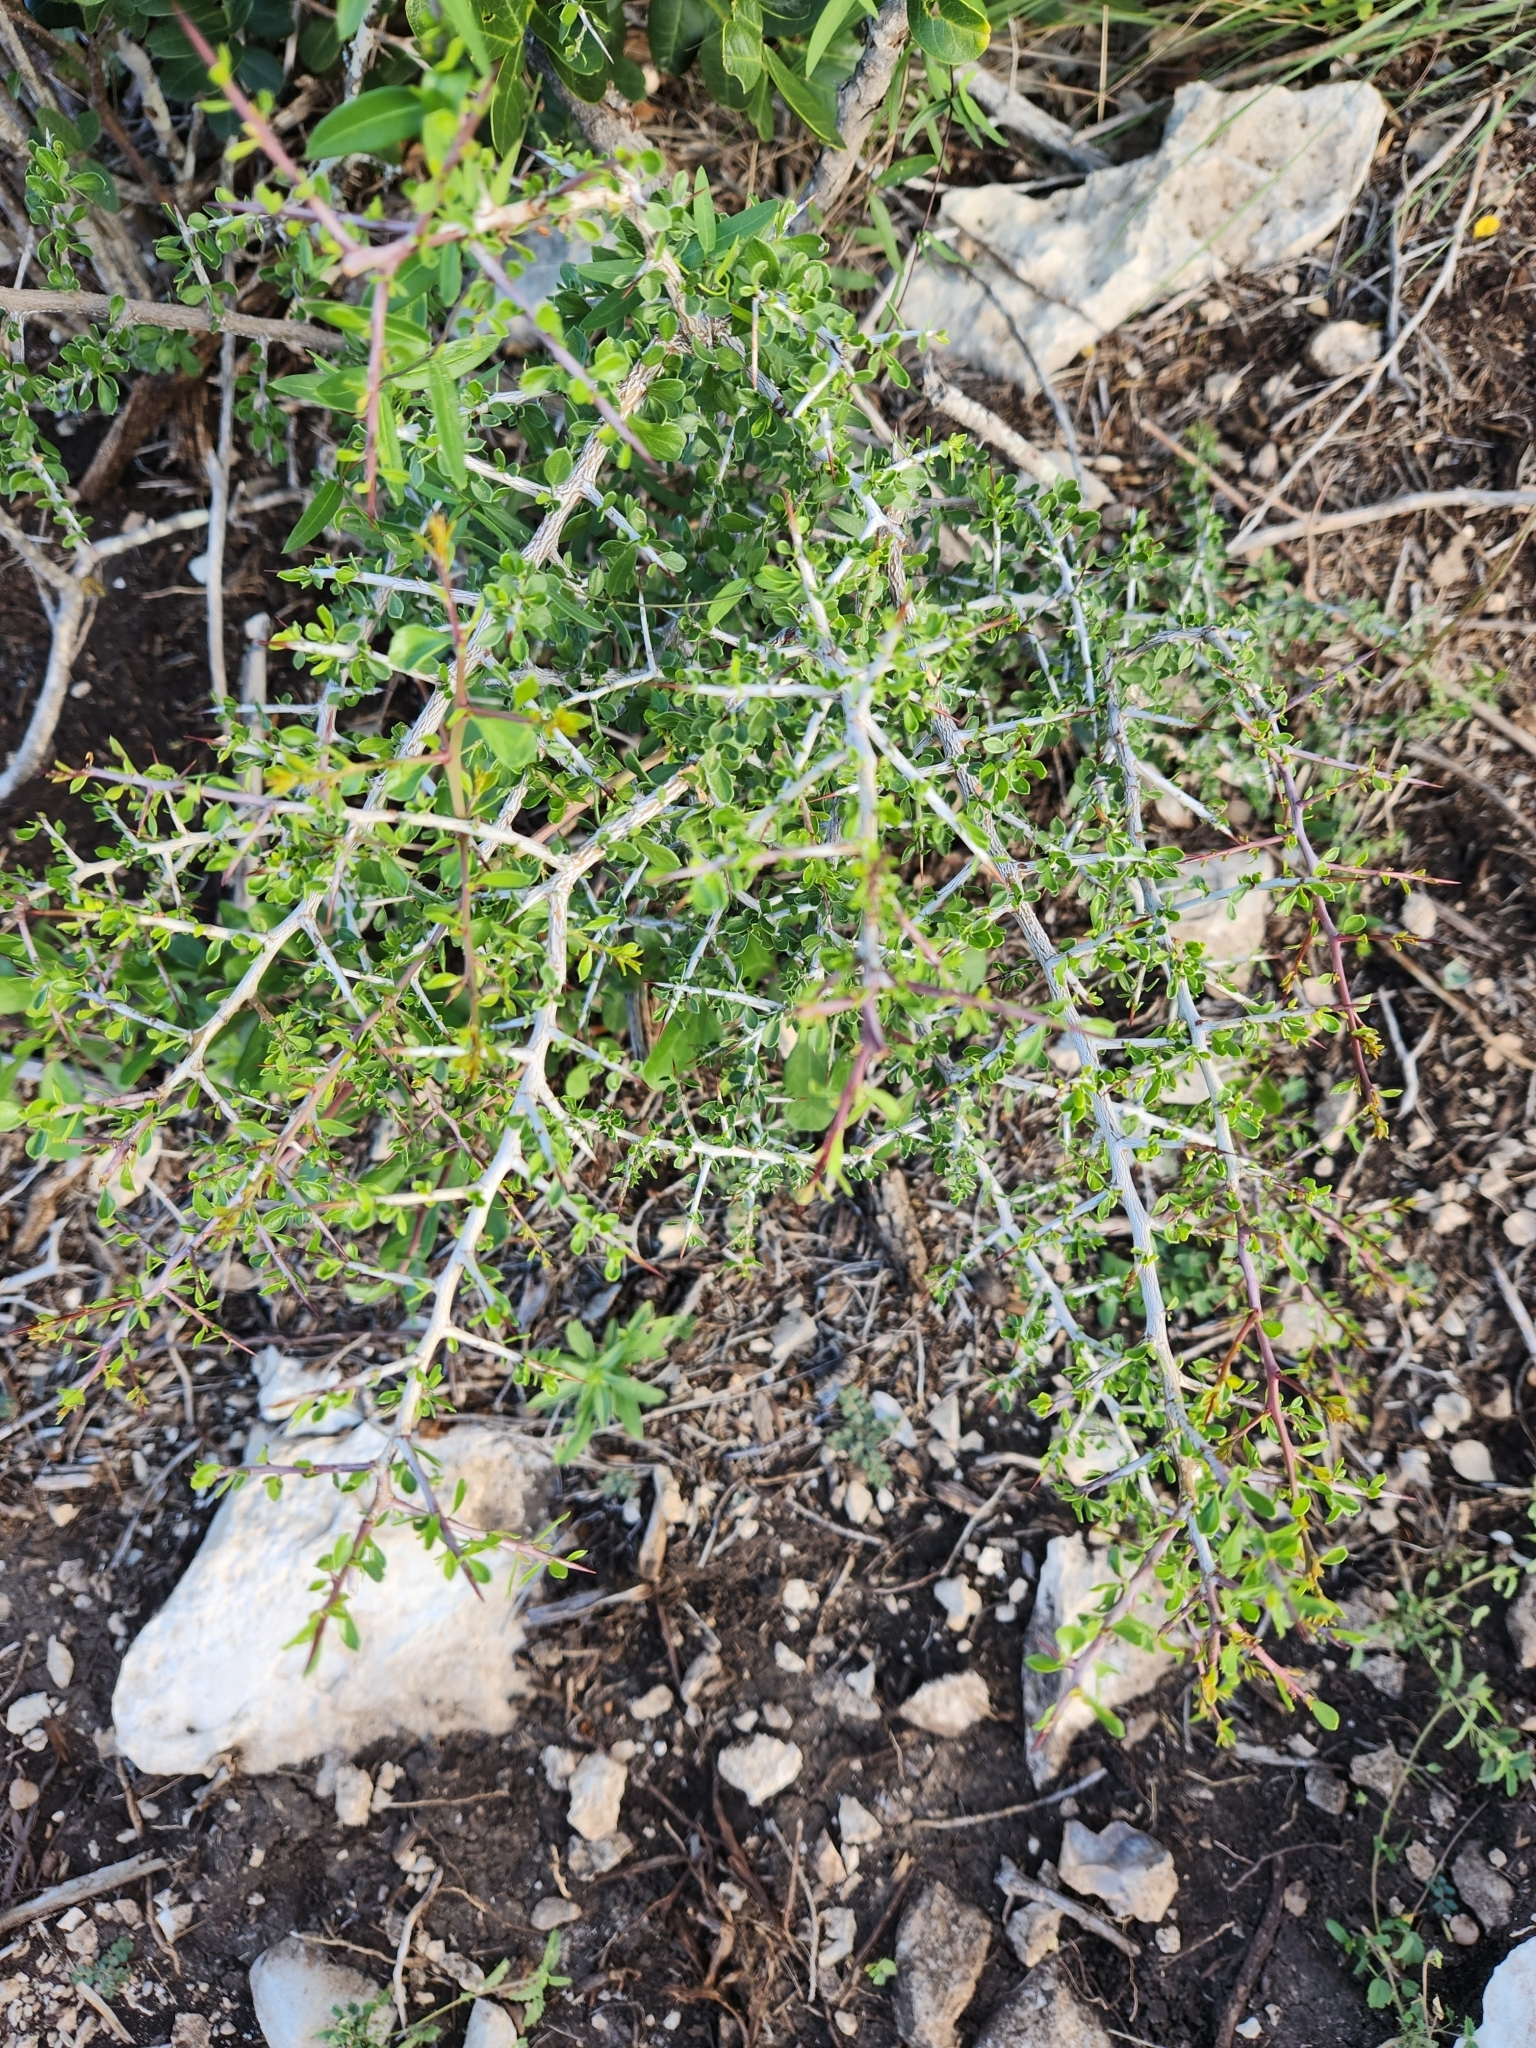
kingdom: Plantae
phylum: Tracheophyta
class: Magnoliopsida
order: Rosales
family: Rhamnaceae
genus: Condalia
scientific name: Condalia viridis
